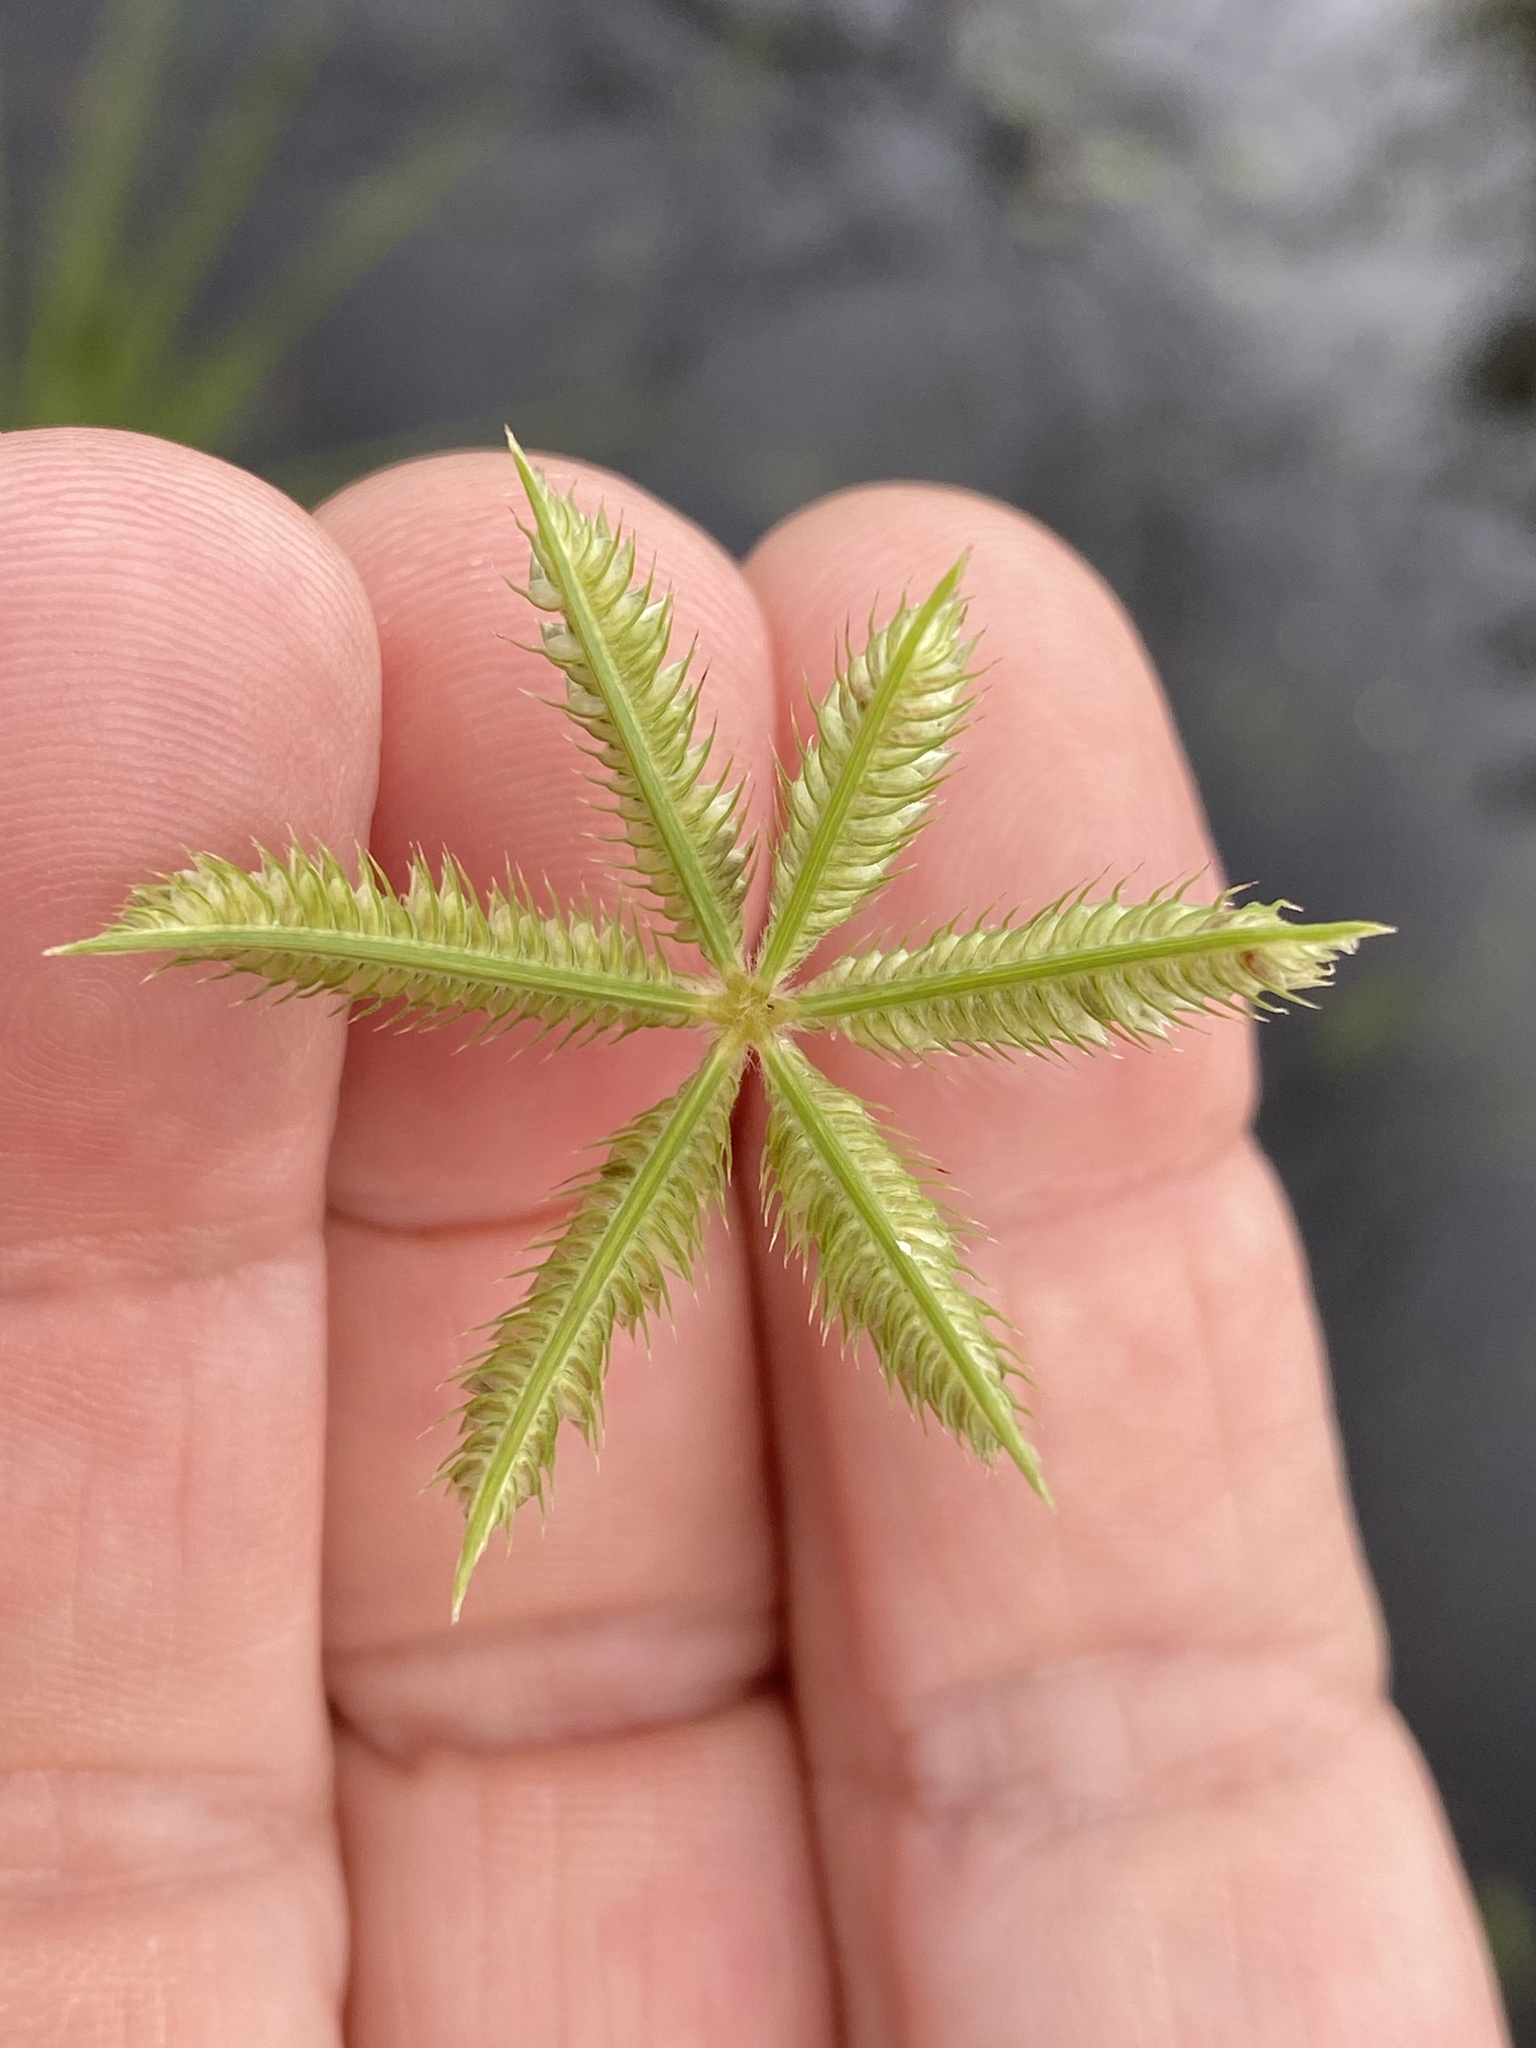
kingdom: Plantae
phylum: Tracheophyta
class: Liliopsida
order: Poales
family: Poaceae
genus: Dactyloctenium
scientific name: Dactyloctenium aegyptium
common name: Egyptian grass
